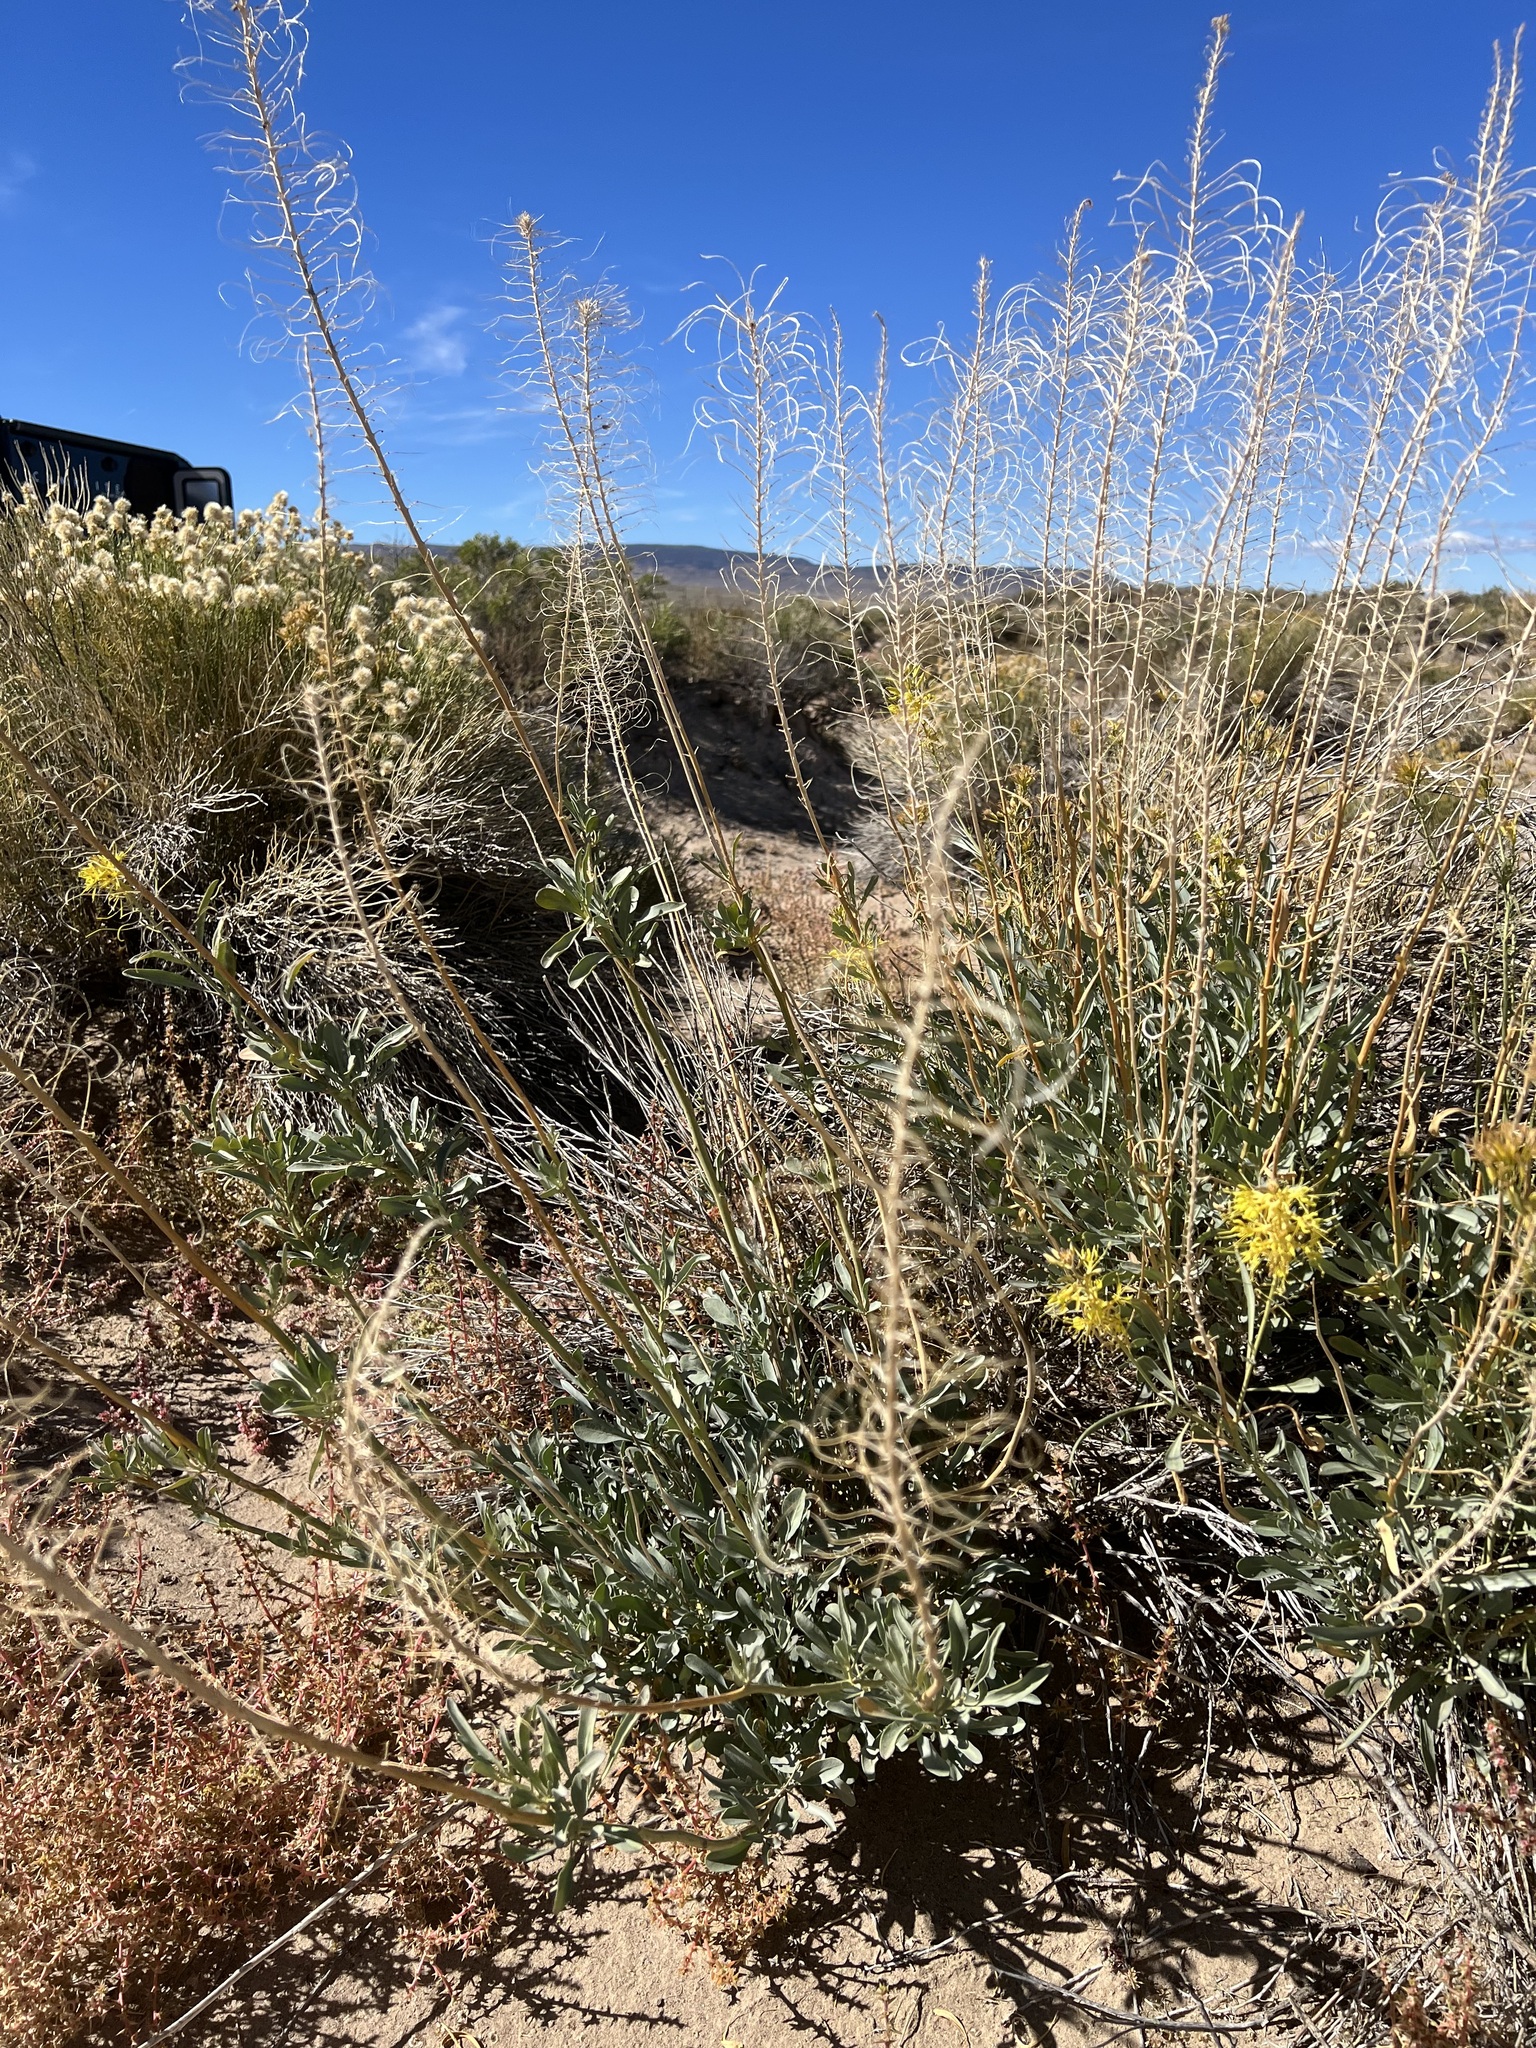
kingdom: Plantae
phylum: Tracheophyta
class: Magnoliopsida
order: Brassicales
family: Brassicaceae
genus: Stanleya
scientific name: Stanleya pinnata
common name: Prince's-plume
